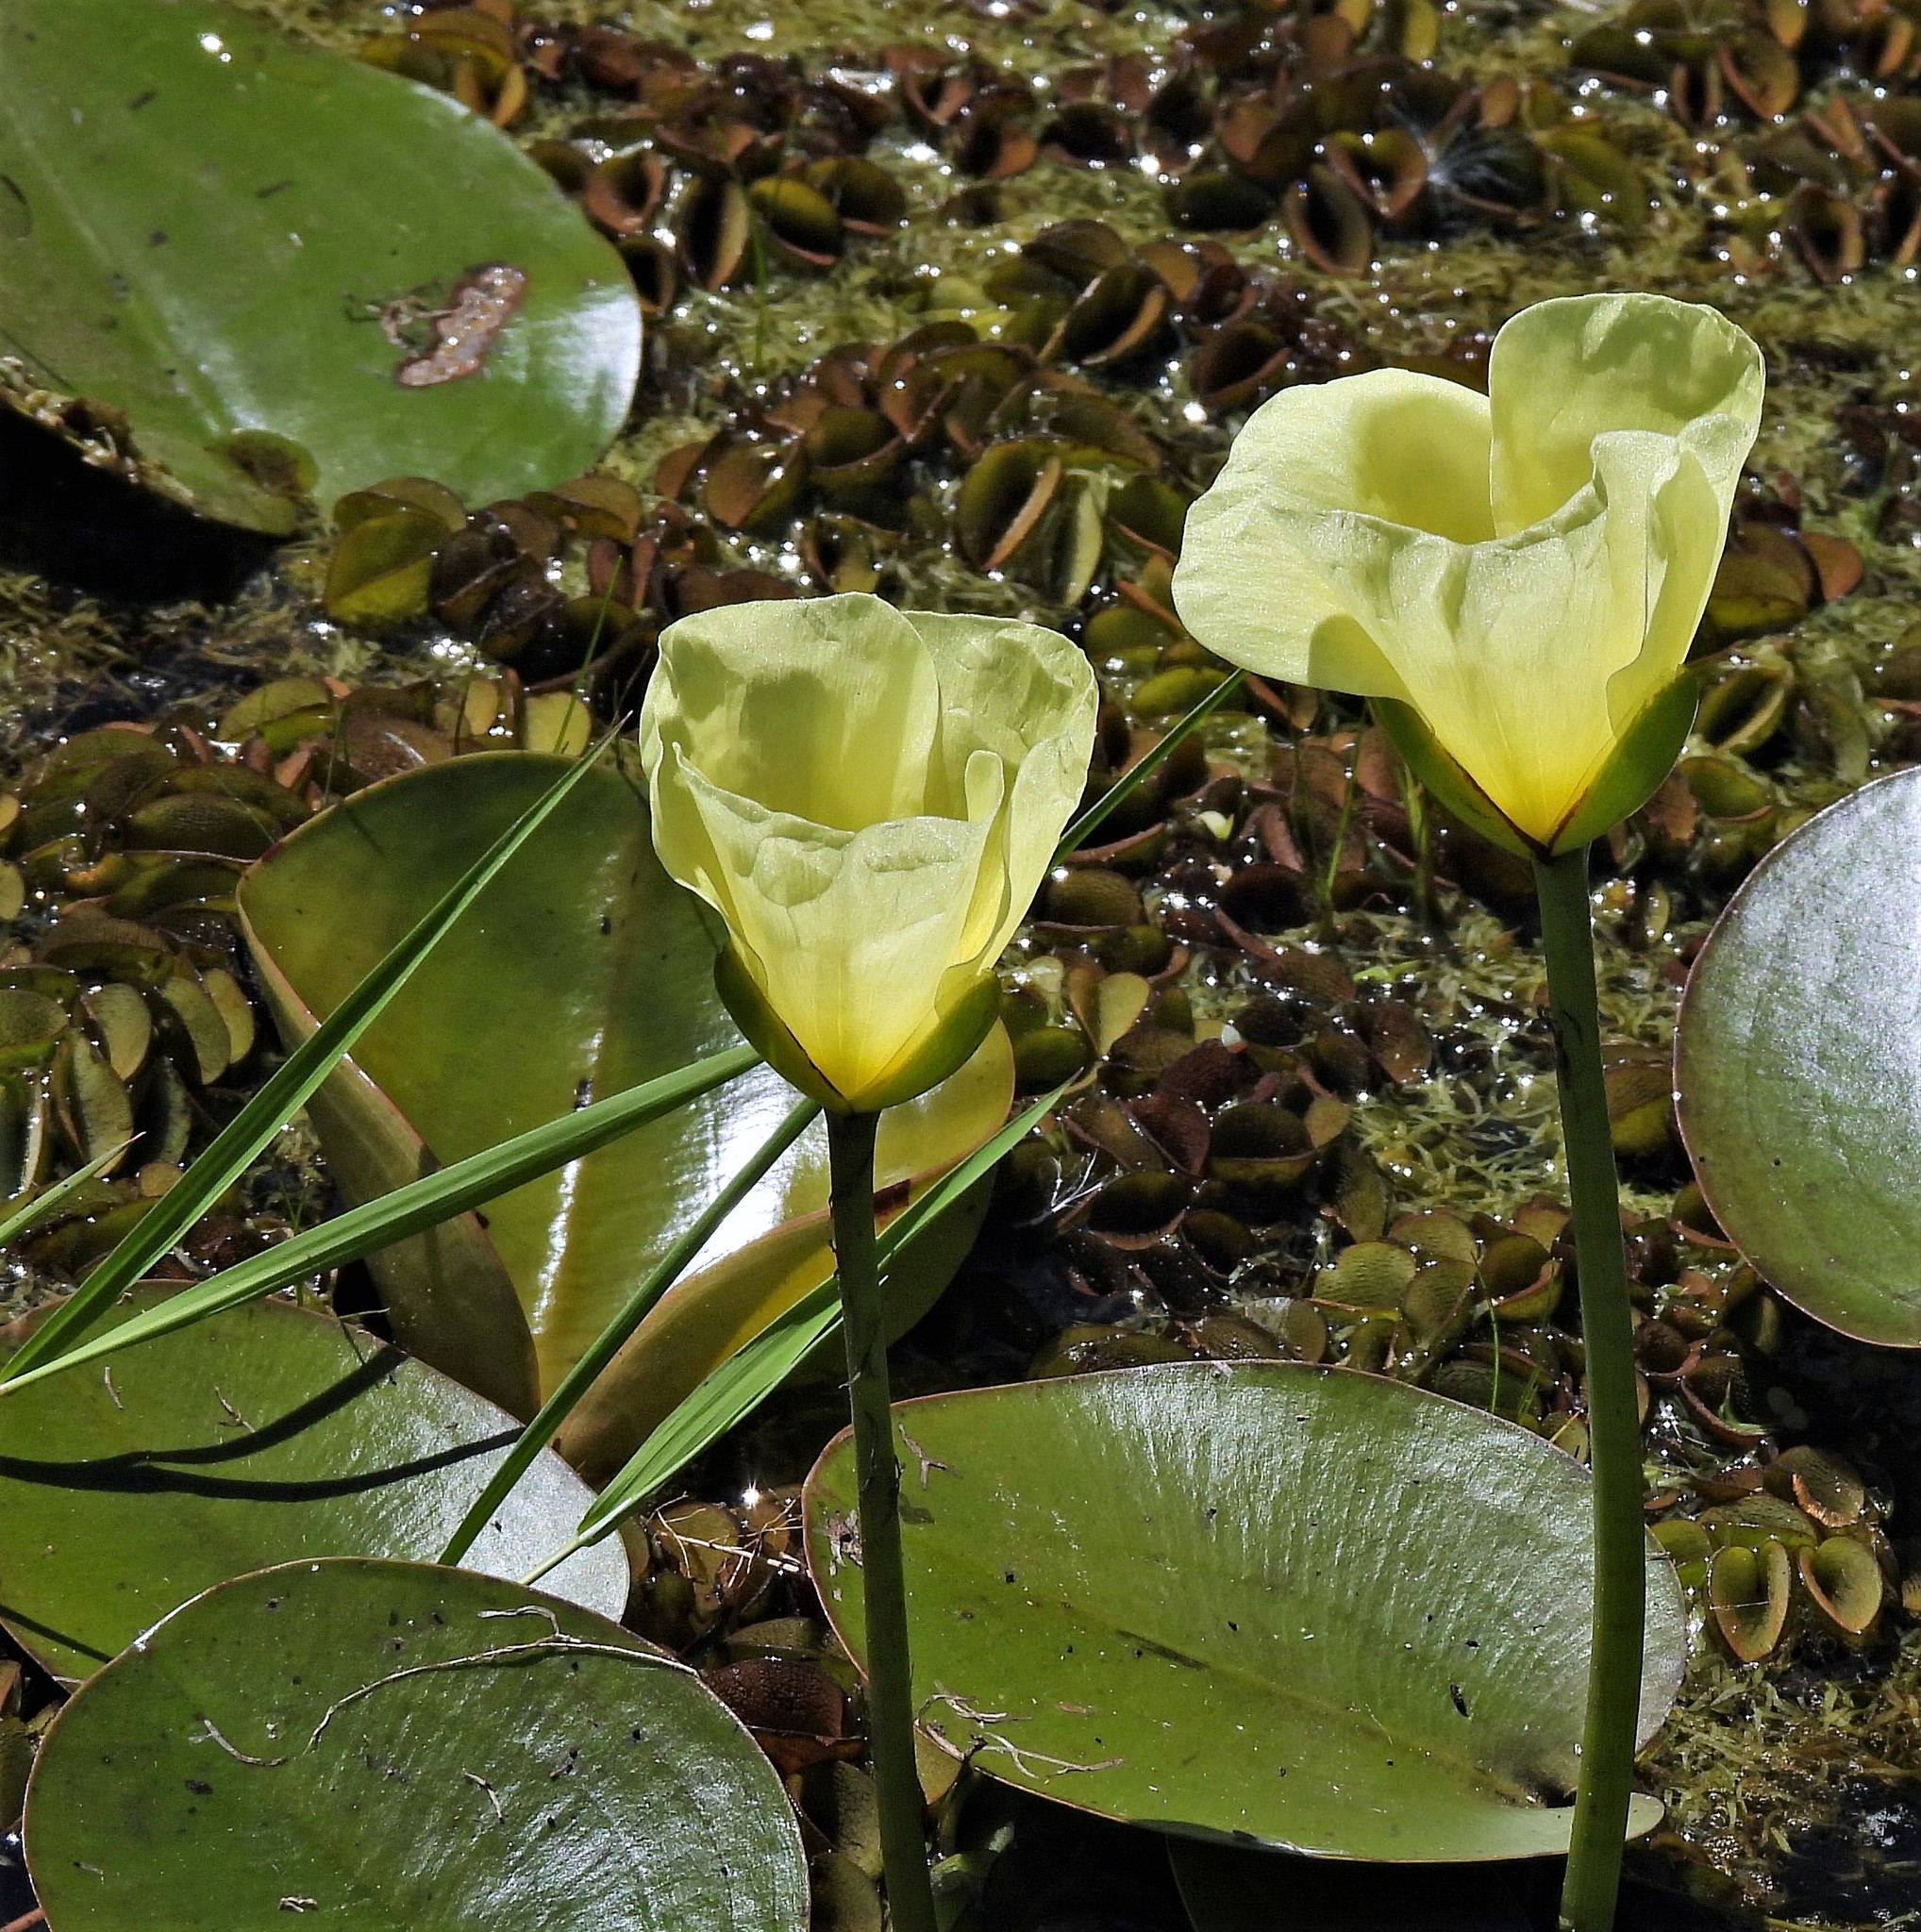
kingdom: Plantae
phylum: Tracheophyta
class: Liliopsida
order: Alismatales
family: Alismataceae
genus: Hydrocleys
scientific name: Hydrocleys nymphoides
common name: Water-poppy
